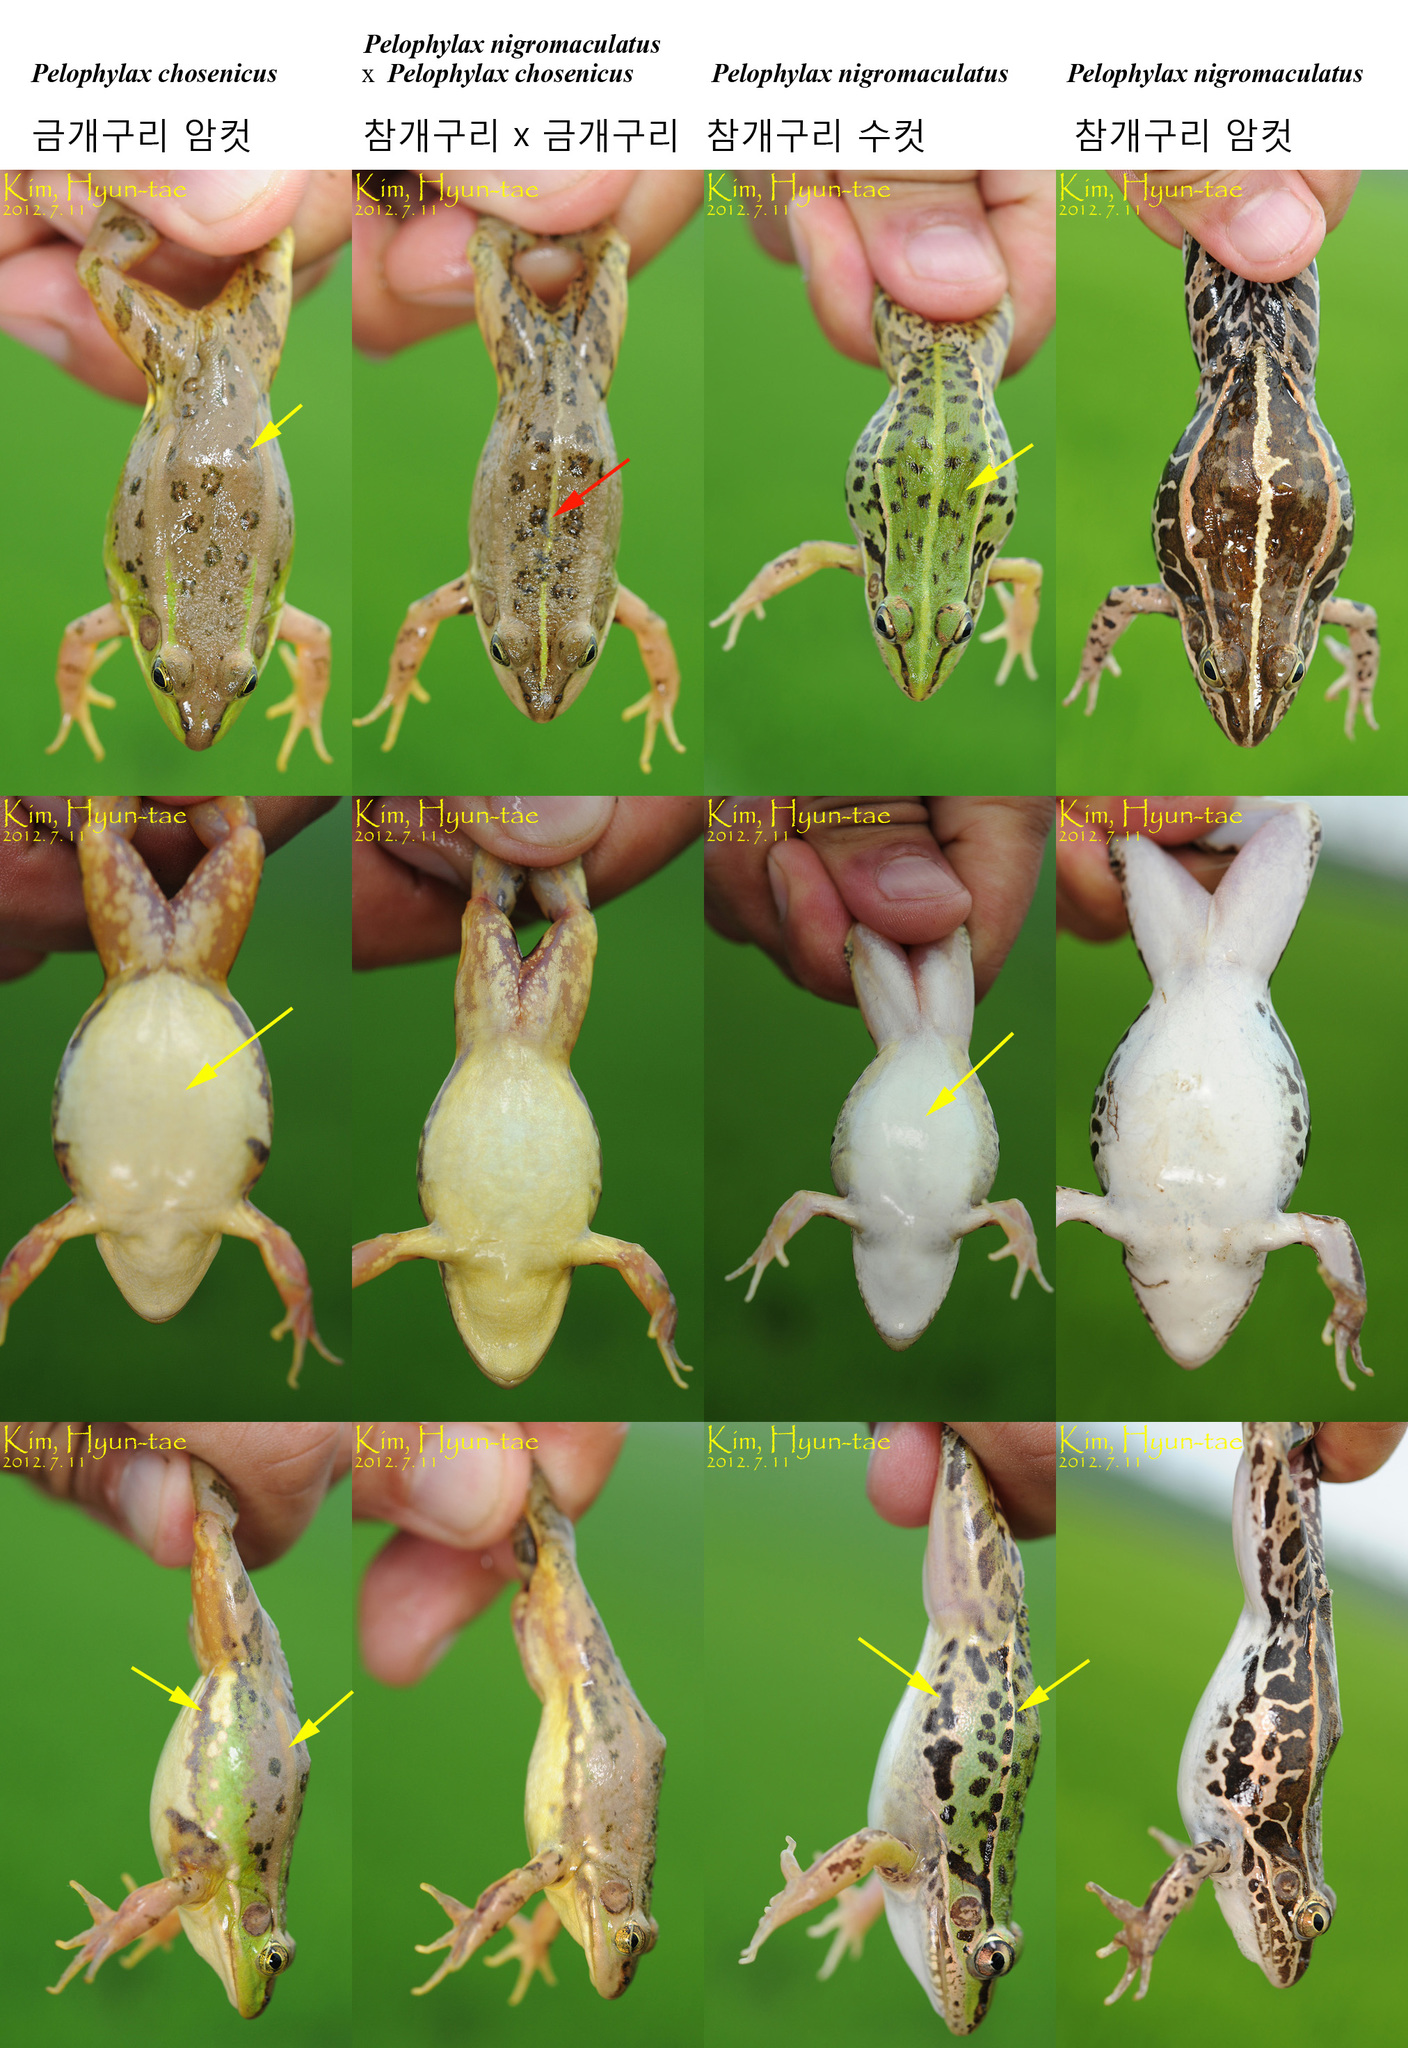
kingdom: Animalia
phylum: Chordata
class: Amphibia
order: Anura
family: Ranidae
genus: Pelophylax
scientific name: Pelophylax nigromaculatus
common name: Black-spotted pond frog
